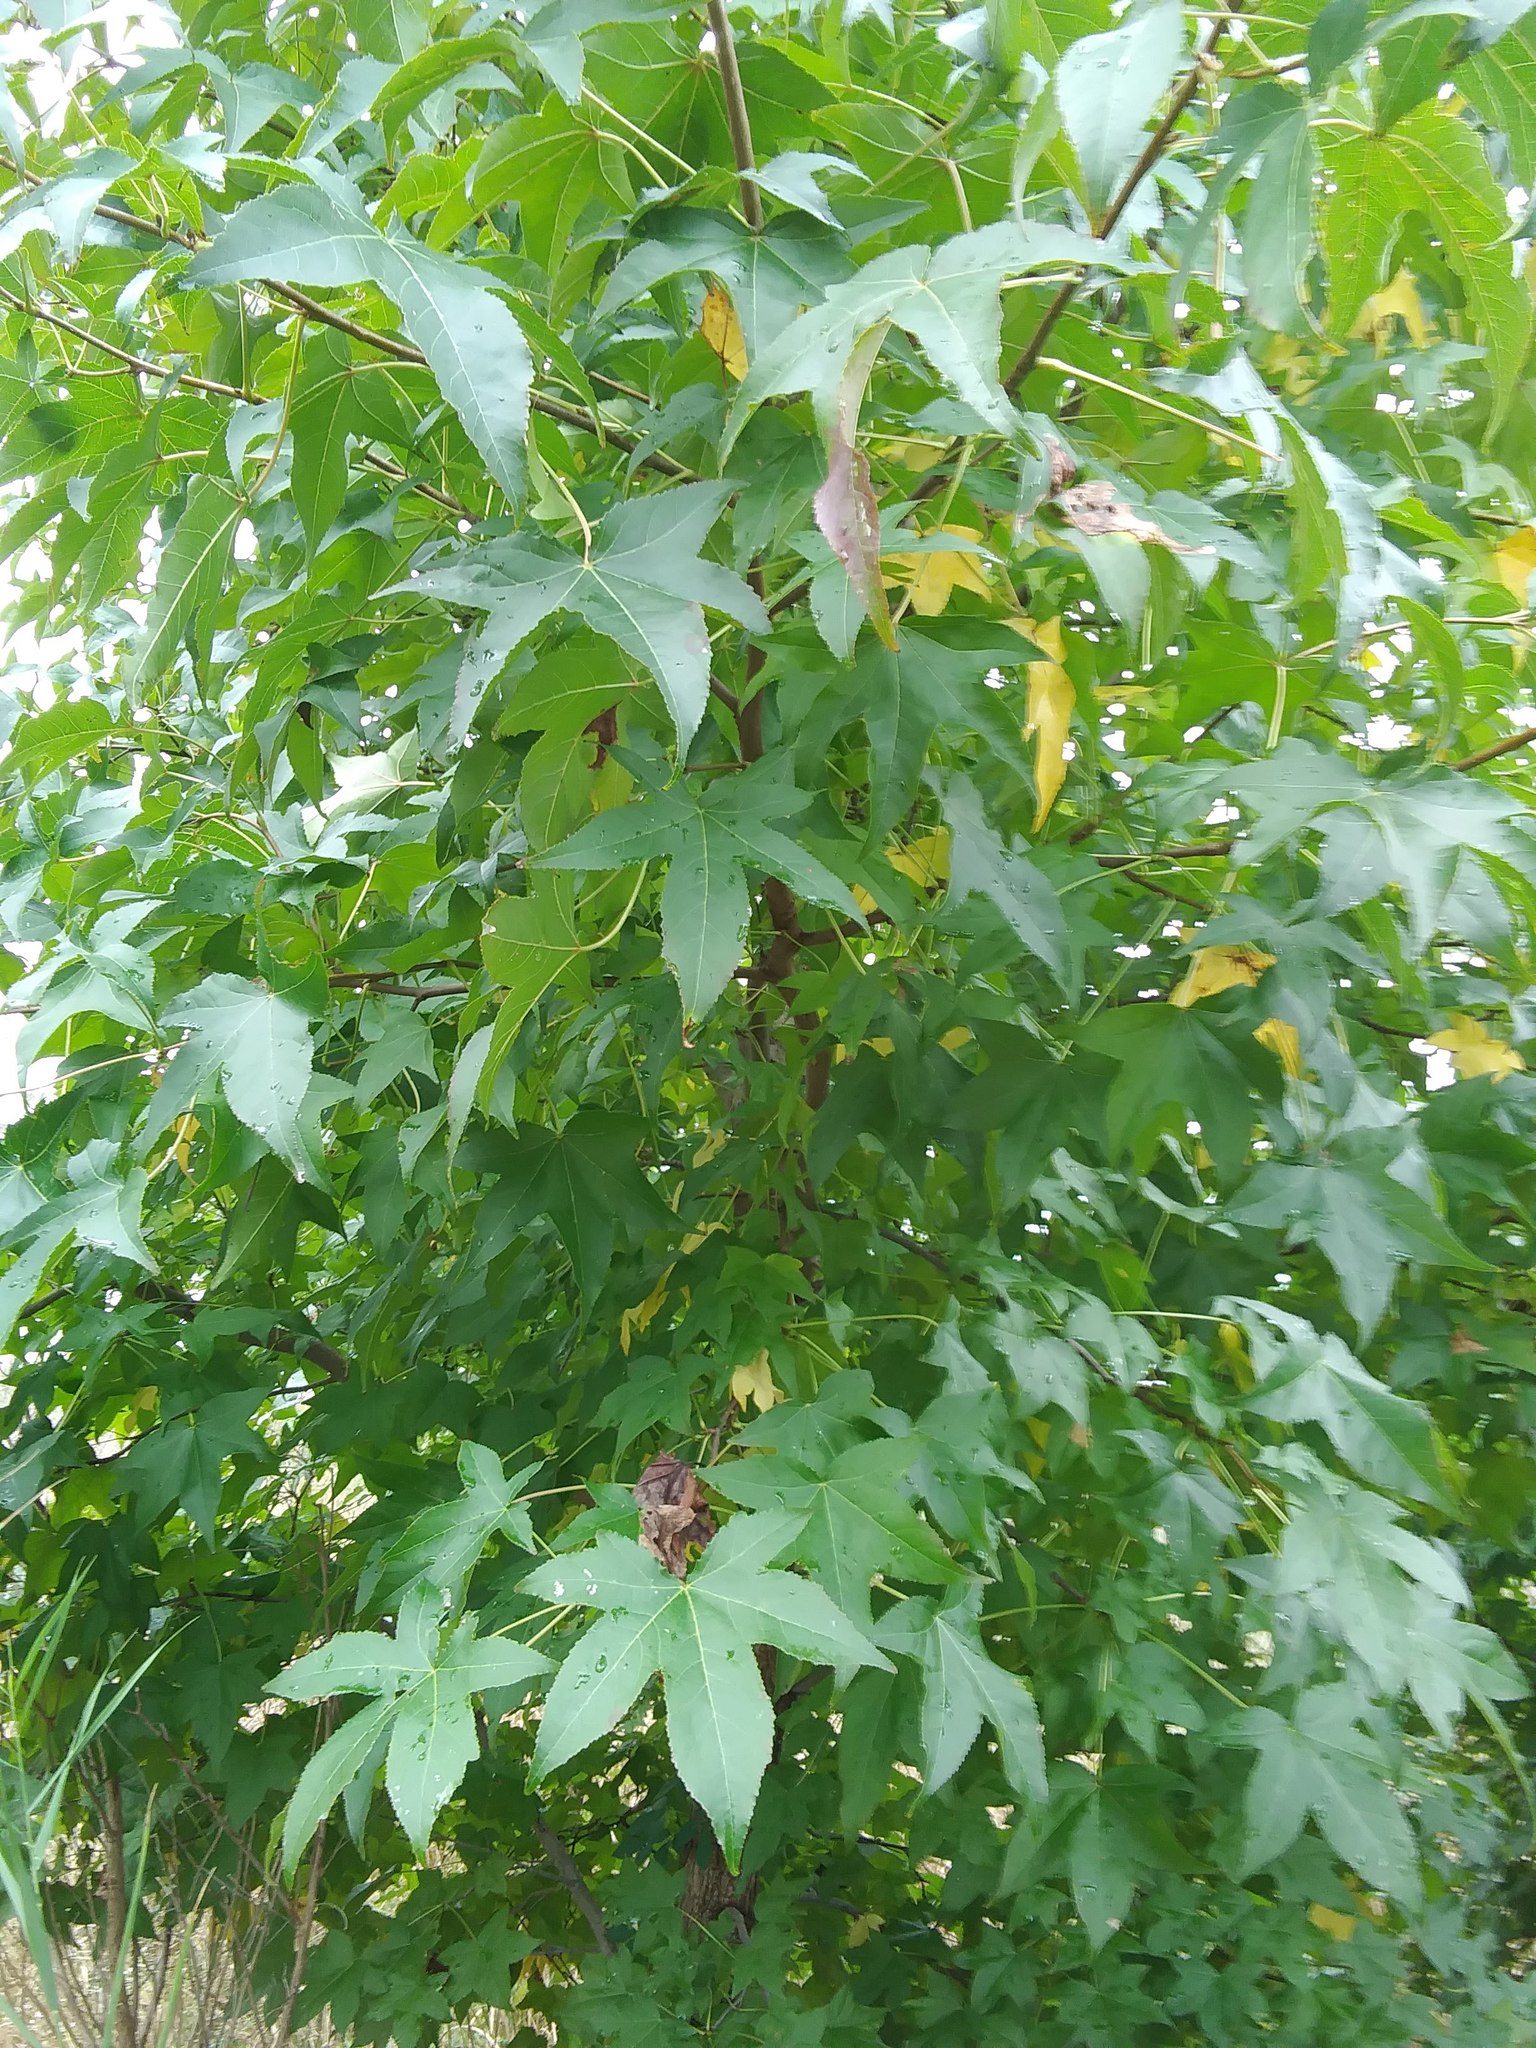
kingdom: Plantae
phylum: Tracheophyta
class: Magnoliopsida
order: Saxifragales
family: Altingiaceae
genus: Liquidambar
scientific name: Liquidambar styraciflua
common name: Sweet gum
